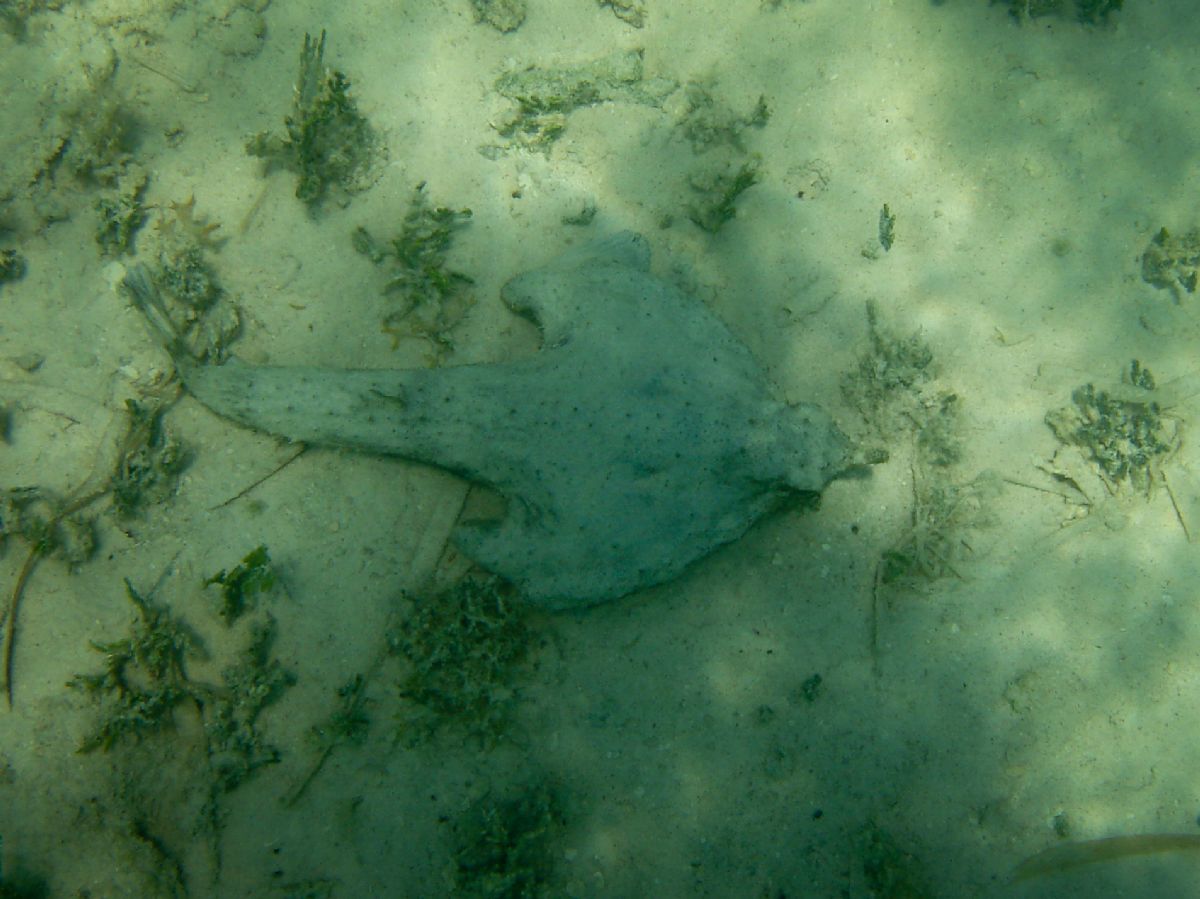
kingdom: Animalia
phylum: Chordata
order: Lophiiformes
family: Ogcocephalidae
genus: Ogcocephalus
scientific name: Ogcocephalus nasutus
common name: Shortnose batfish
